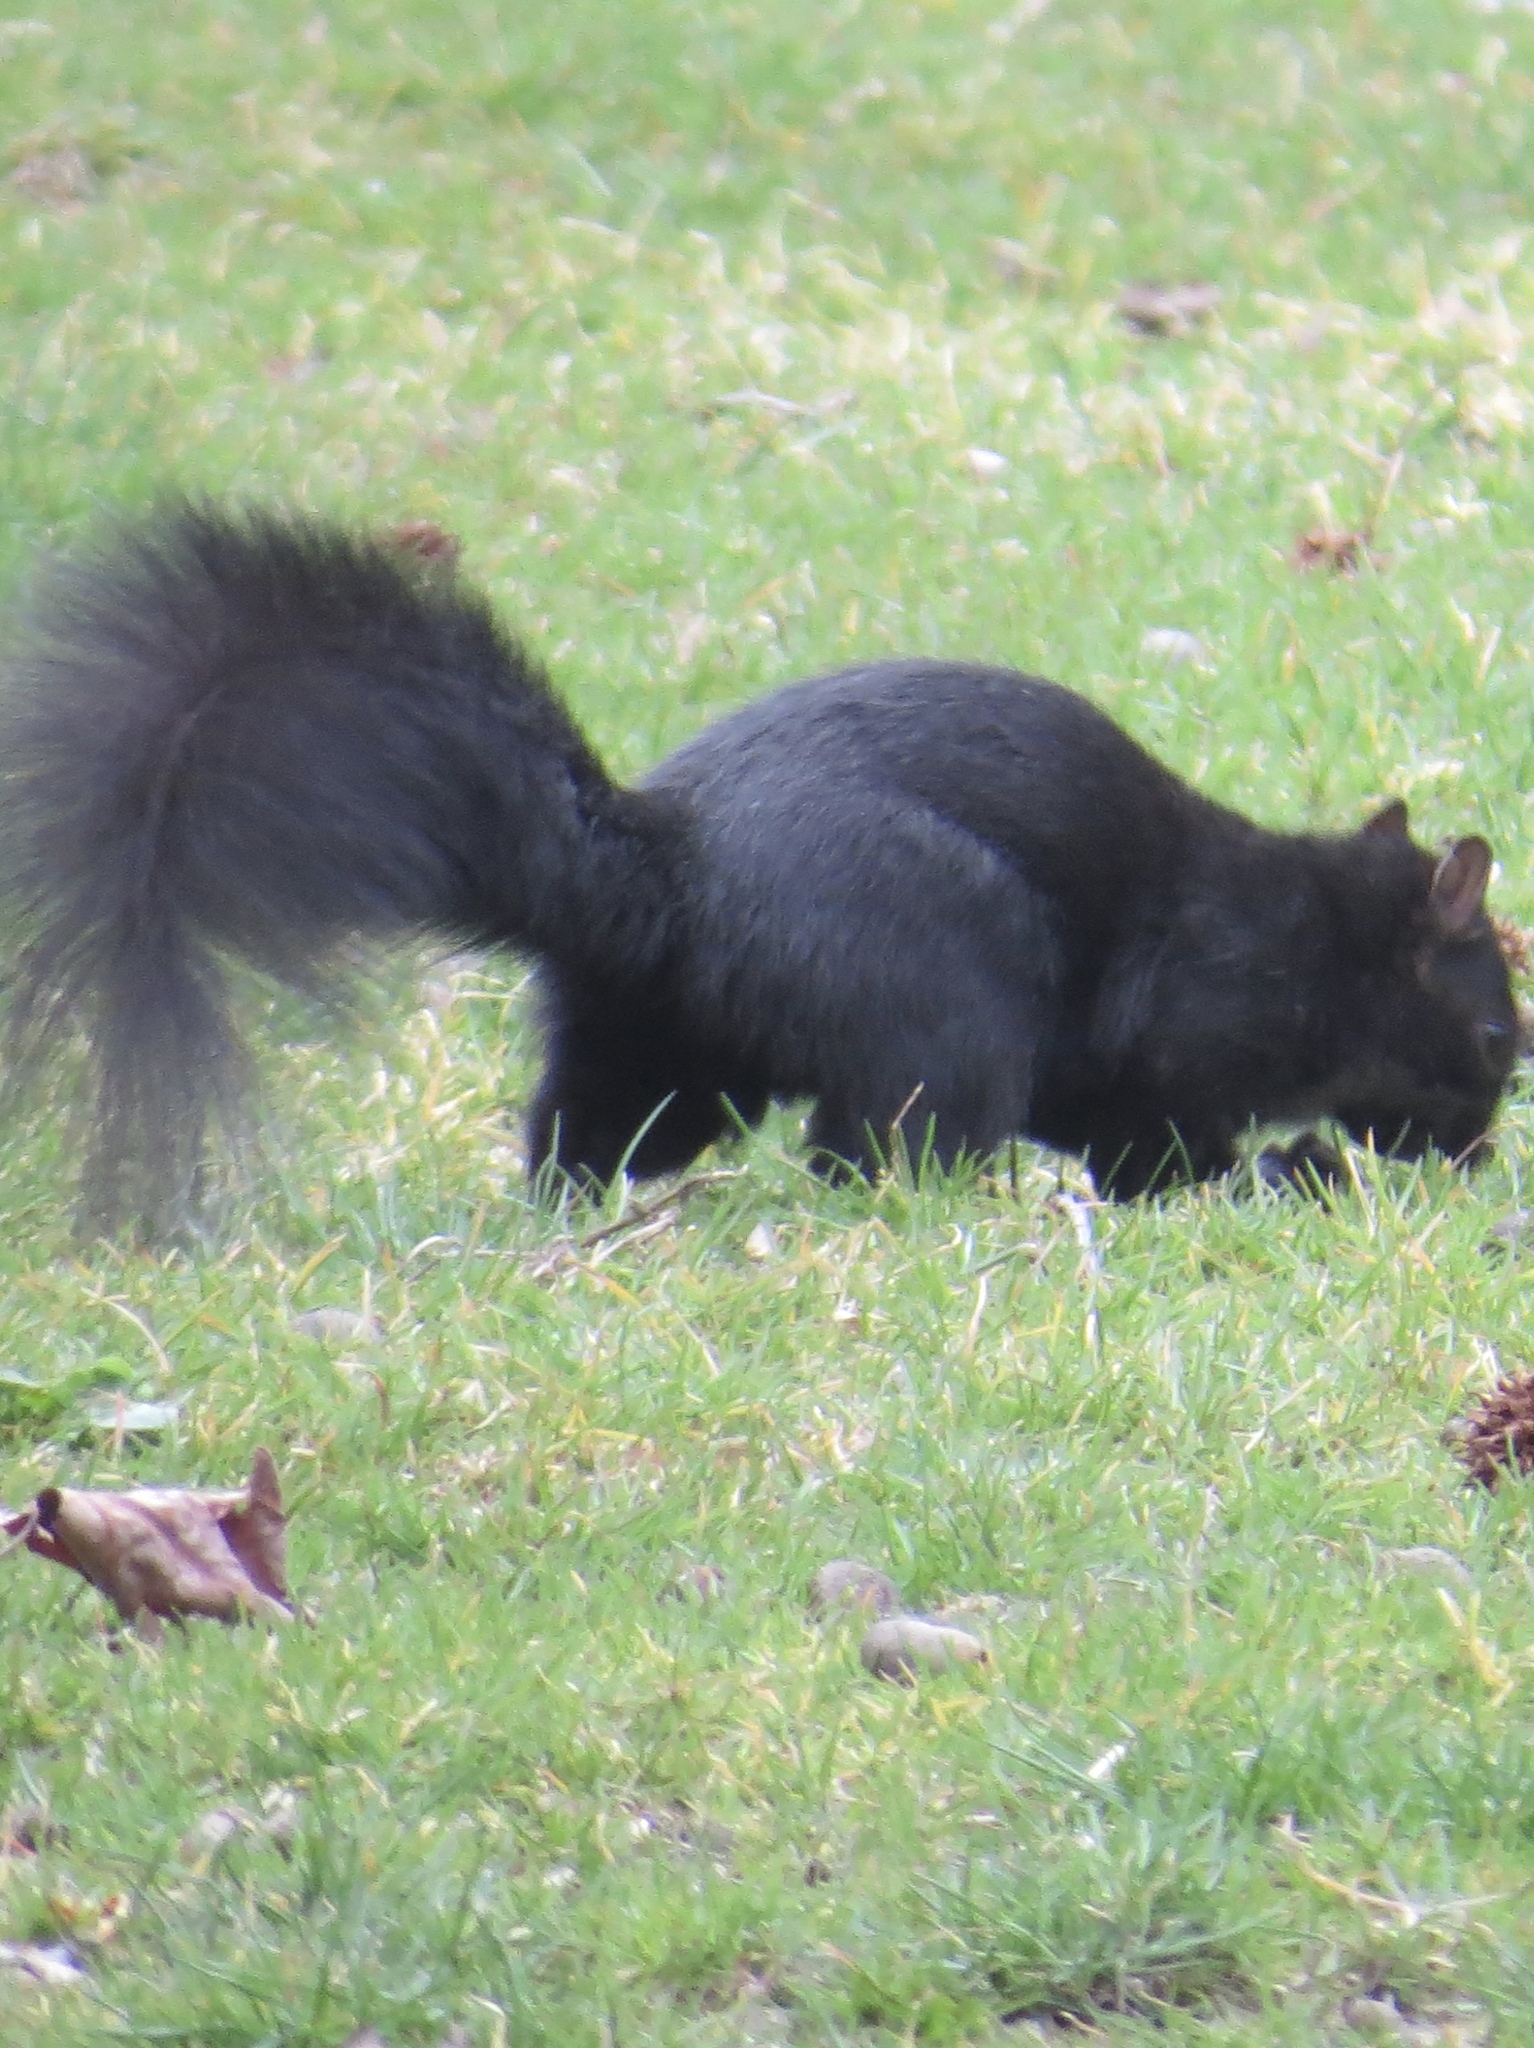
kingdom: Animalia
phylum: Chordata
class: Mammalia
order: Rodentia
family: Sciuridae
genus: Sciurus
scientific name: Sciurus carolinensis
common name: Eastern gray squirrel
